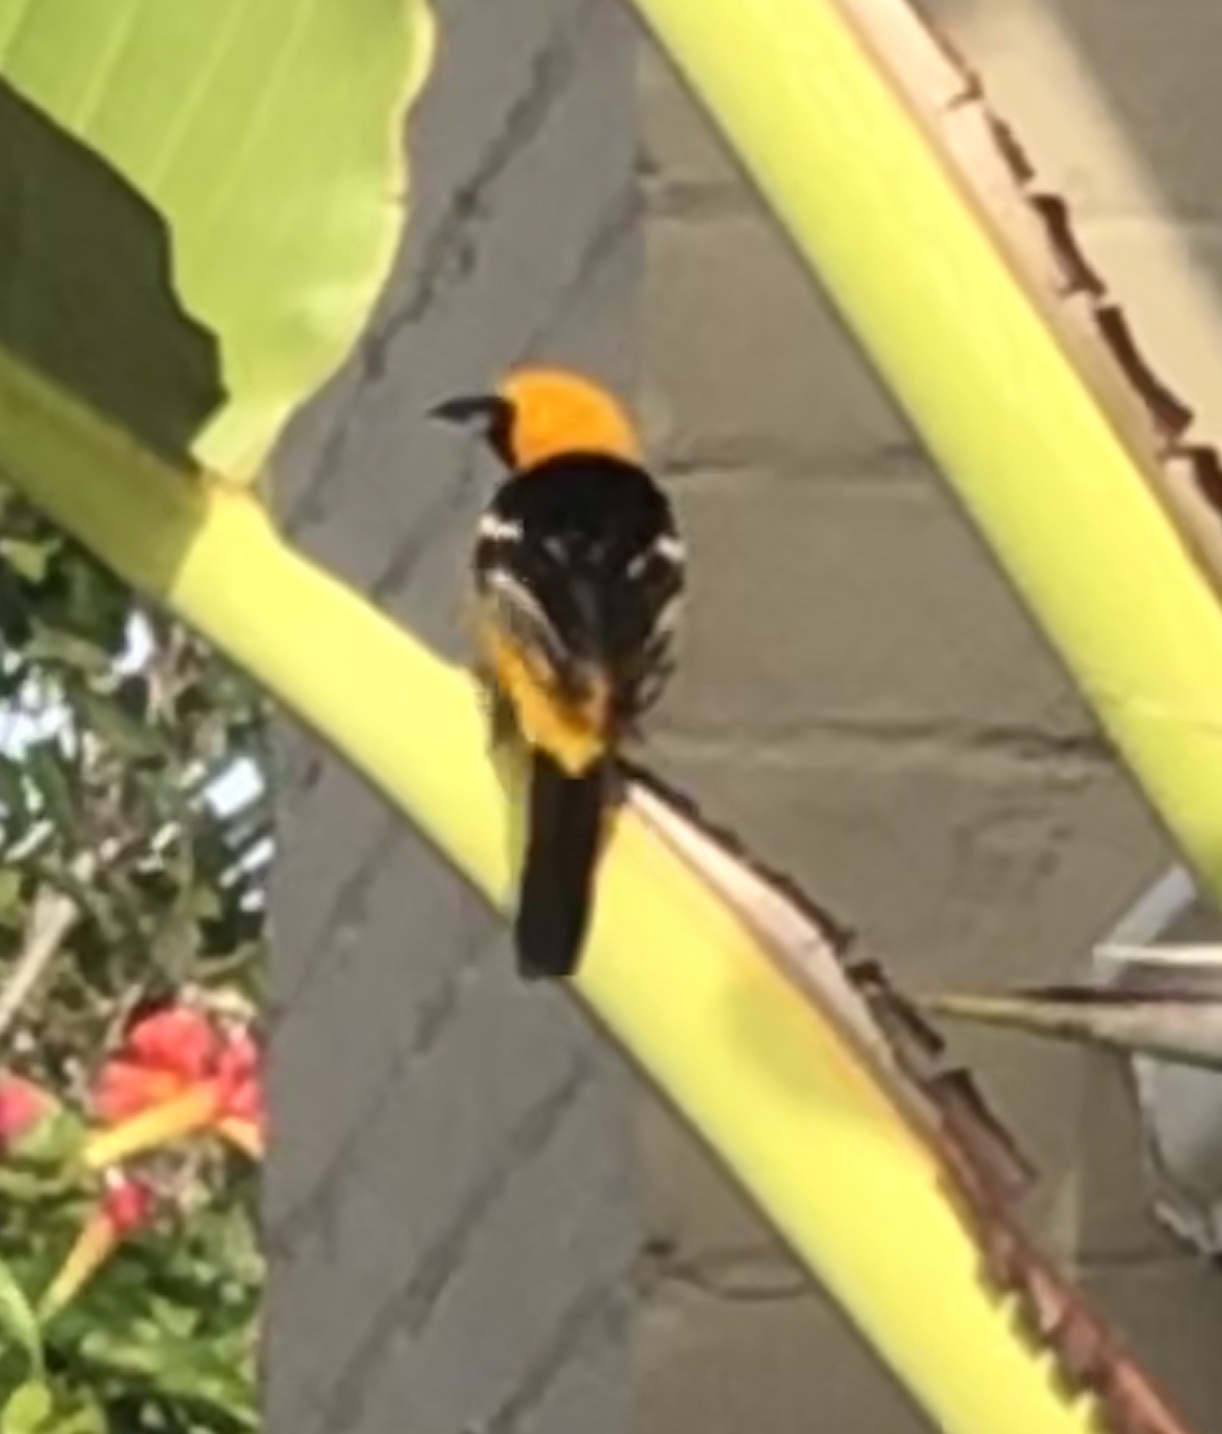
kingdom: Animalia
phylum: Chordata
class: Aves
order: Passeriformes
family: Icteridae
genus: Icterus
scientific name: Icterus cucullatus
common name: Hooded oriole
